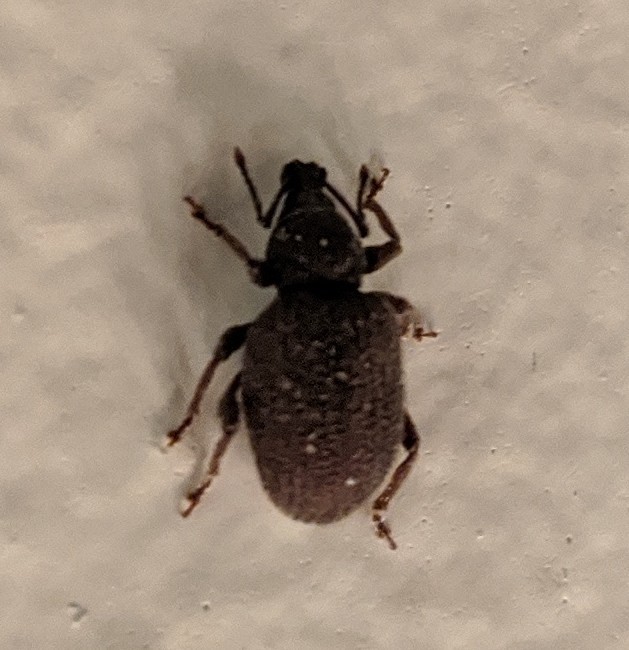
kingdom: Animalia
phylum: Arthropoda
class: Insecta
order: Coleoptera
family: Curculionidae
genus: Otiorhynchus
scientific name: Otiorhynchus rugosostriatus
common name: Weevil
